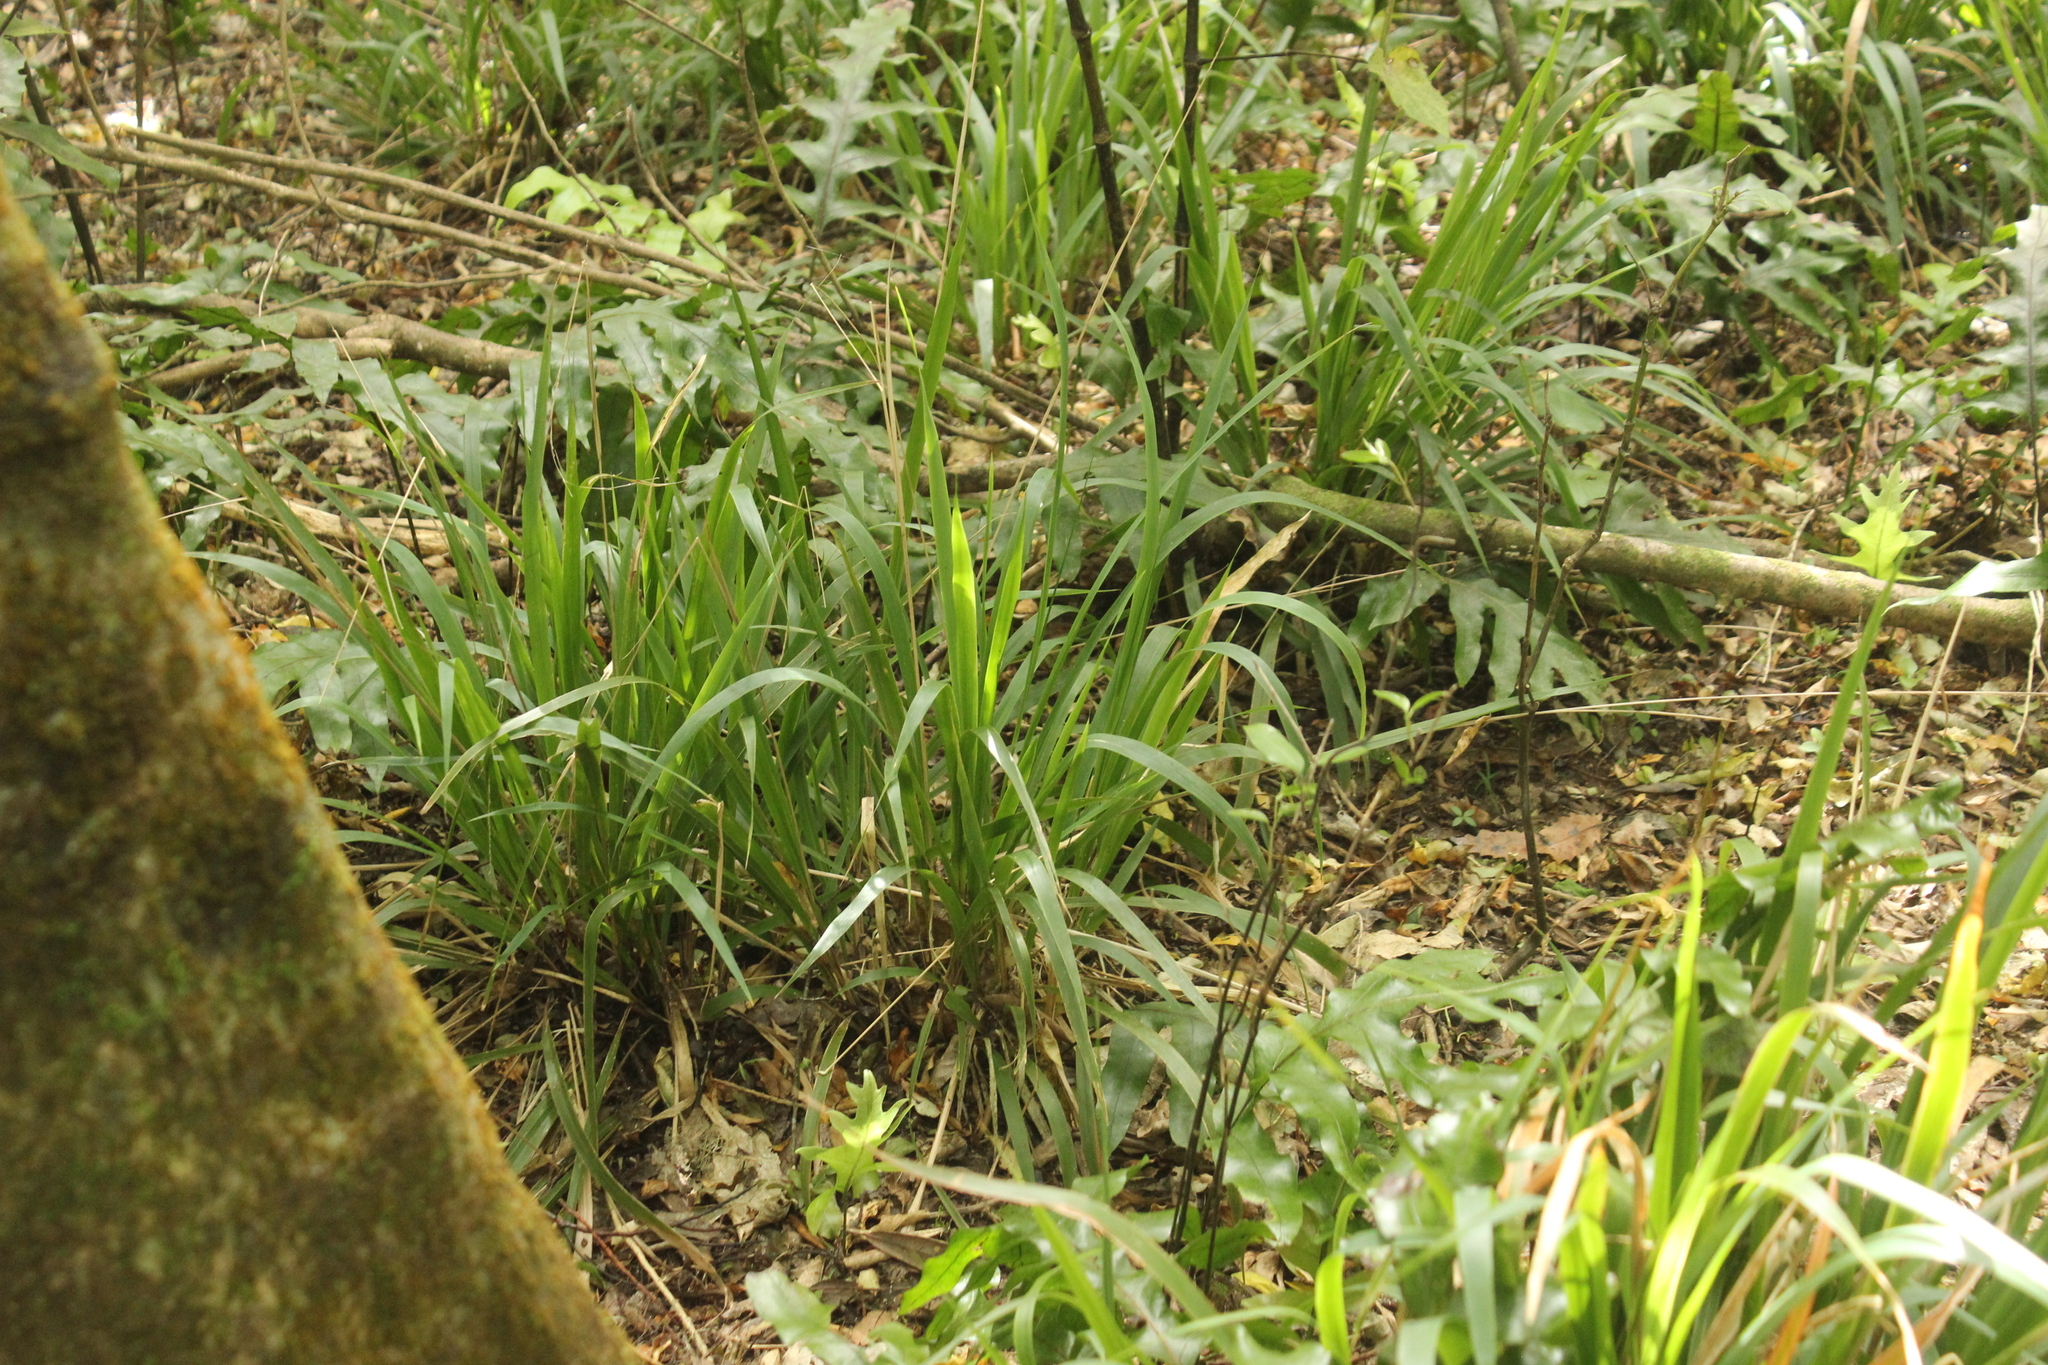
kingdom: Plantae
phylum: Tracheophyta
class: Liliopsida
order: Poales
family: Poaceae
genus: Ehrharta
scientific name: Ehrharta diplax
